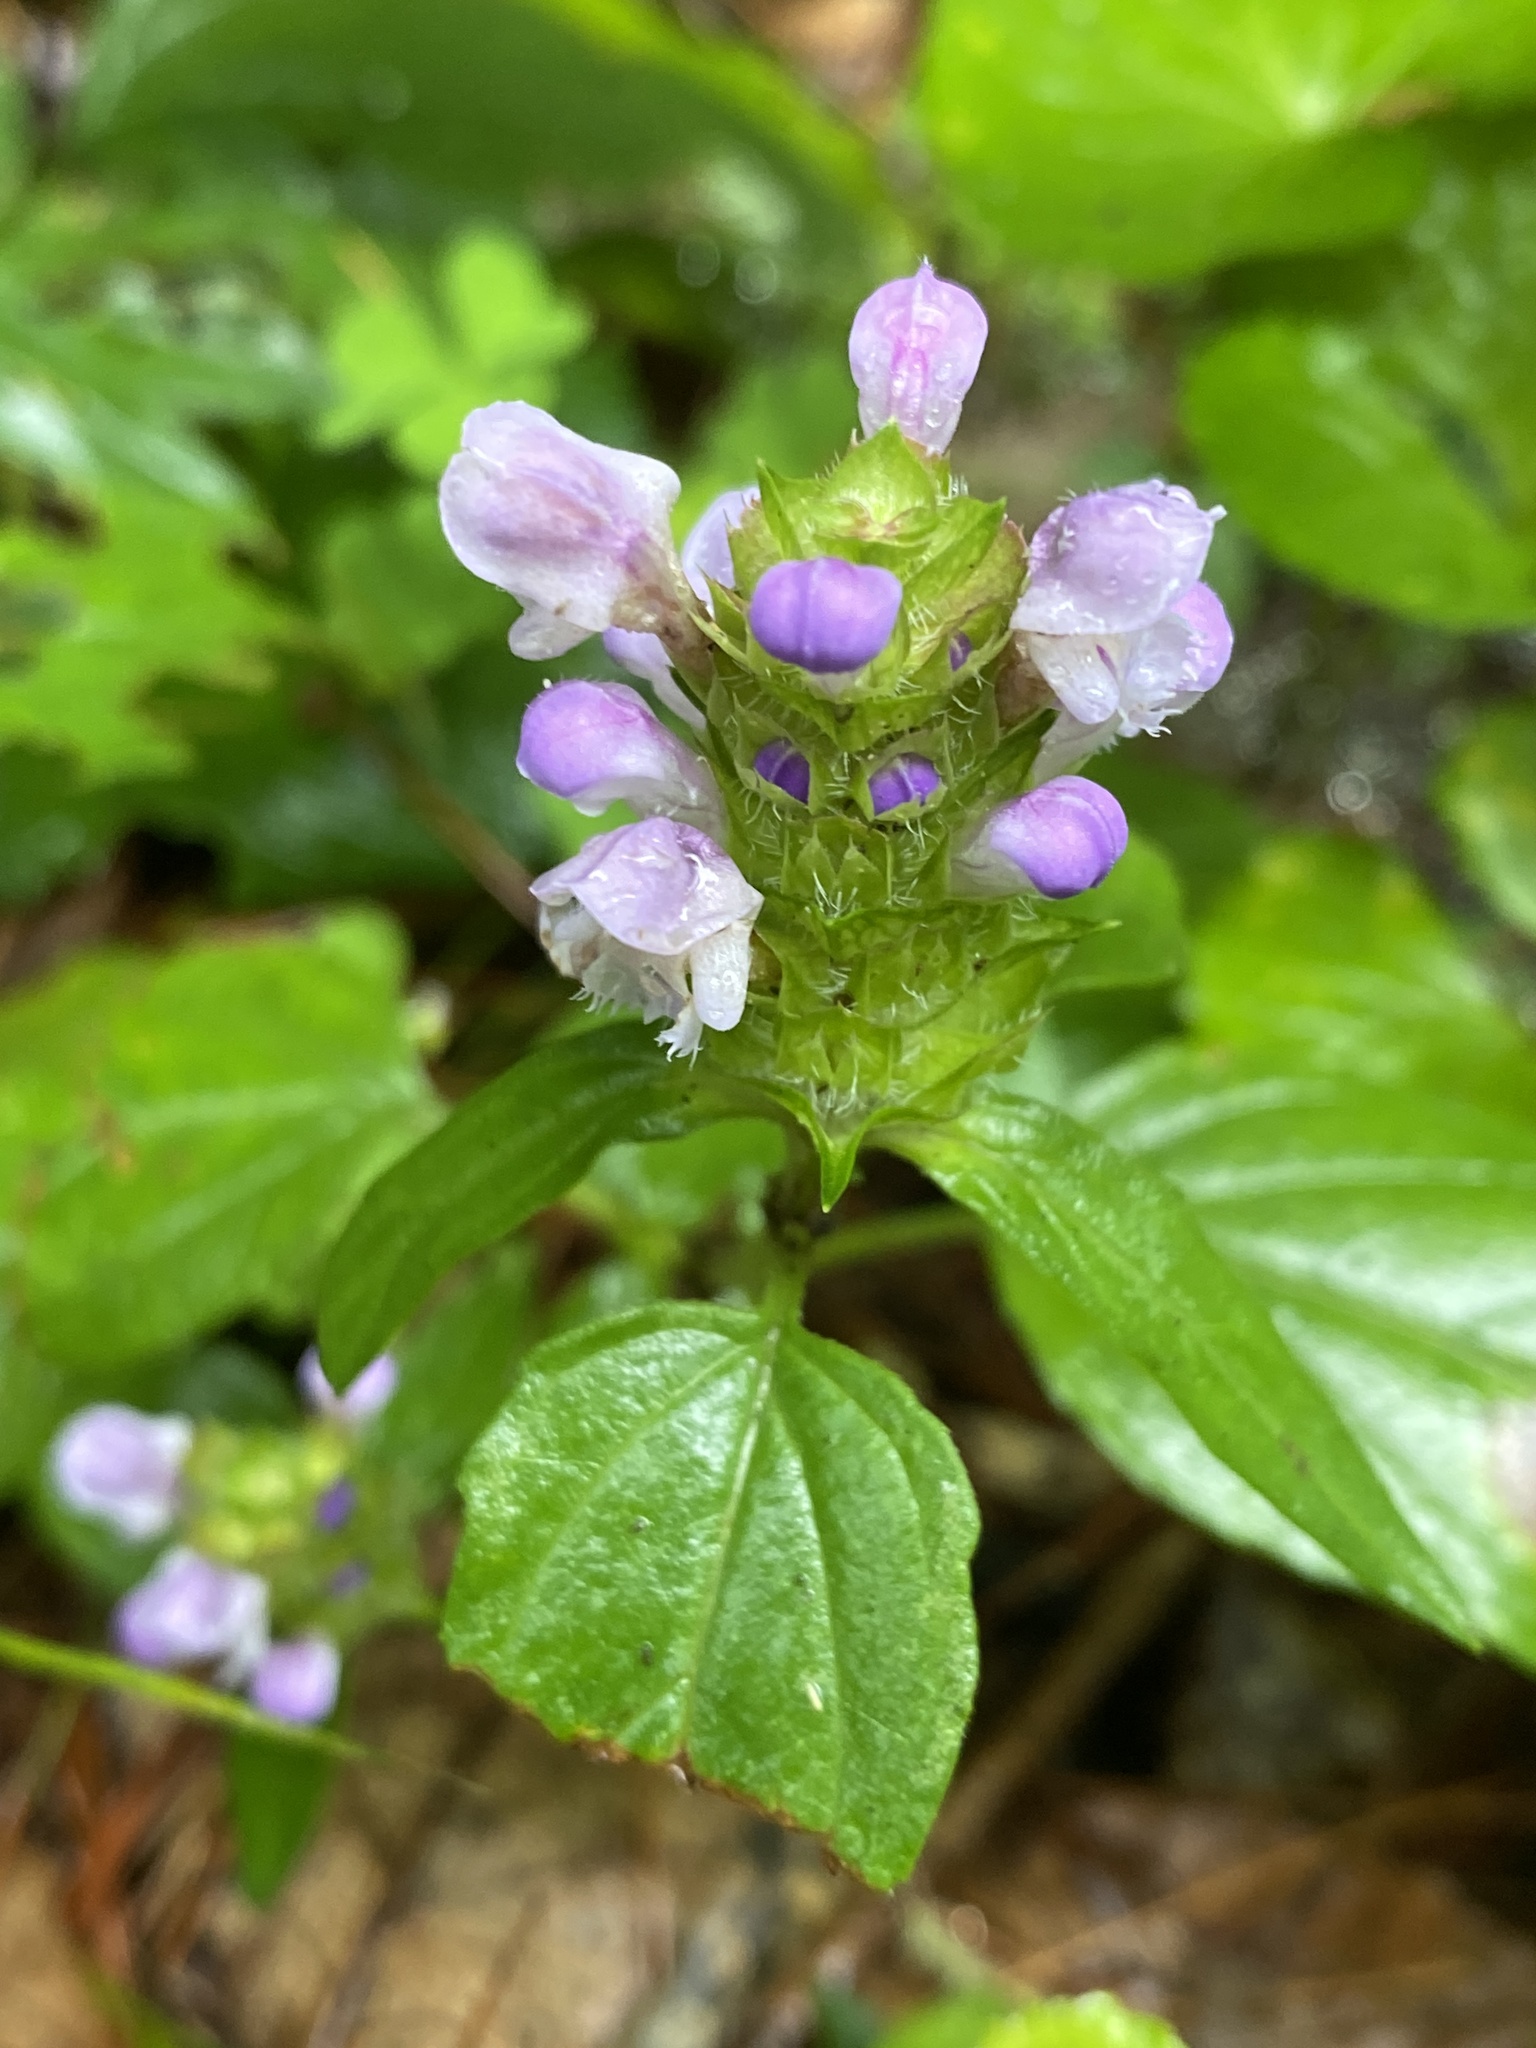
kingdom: Plantae
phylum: Tracheophyta
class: Magnoliopsida
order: Lamiales
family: Lamiaceae
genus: Prunella
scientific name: Prunella vulgaris
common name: Heal-all
